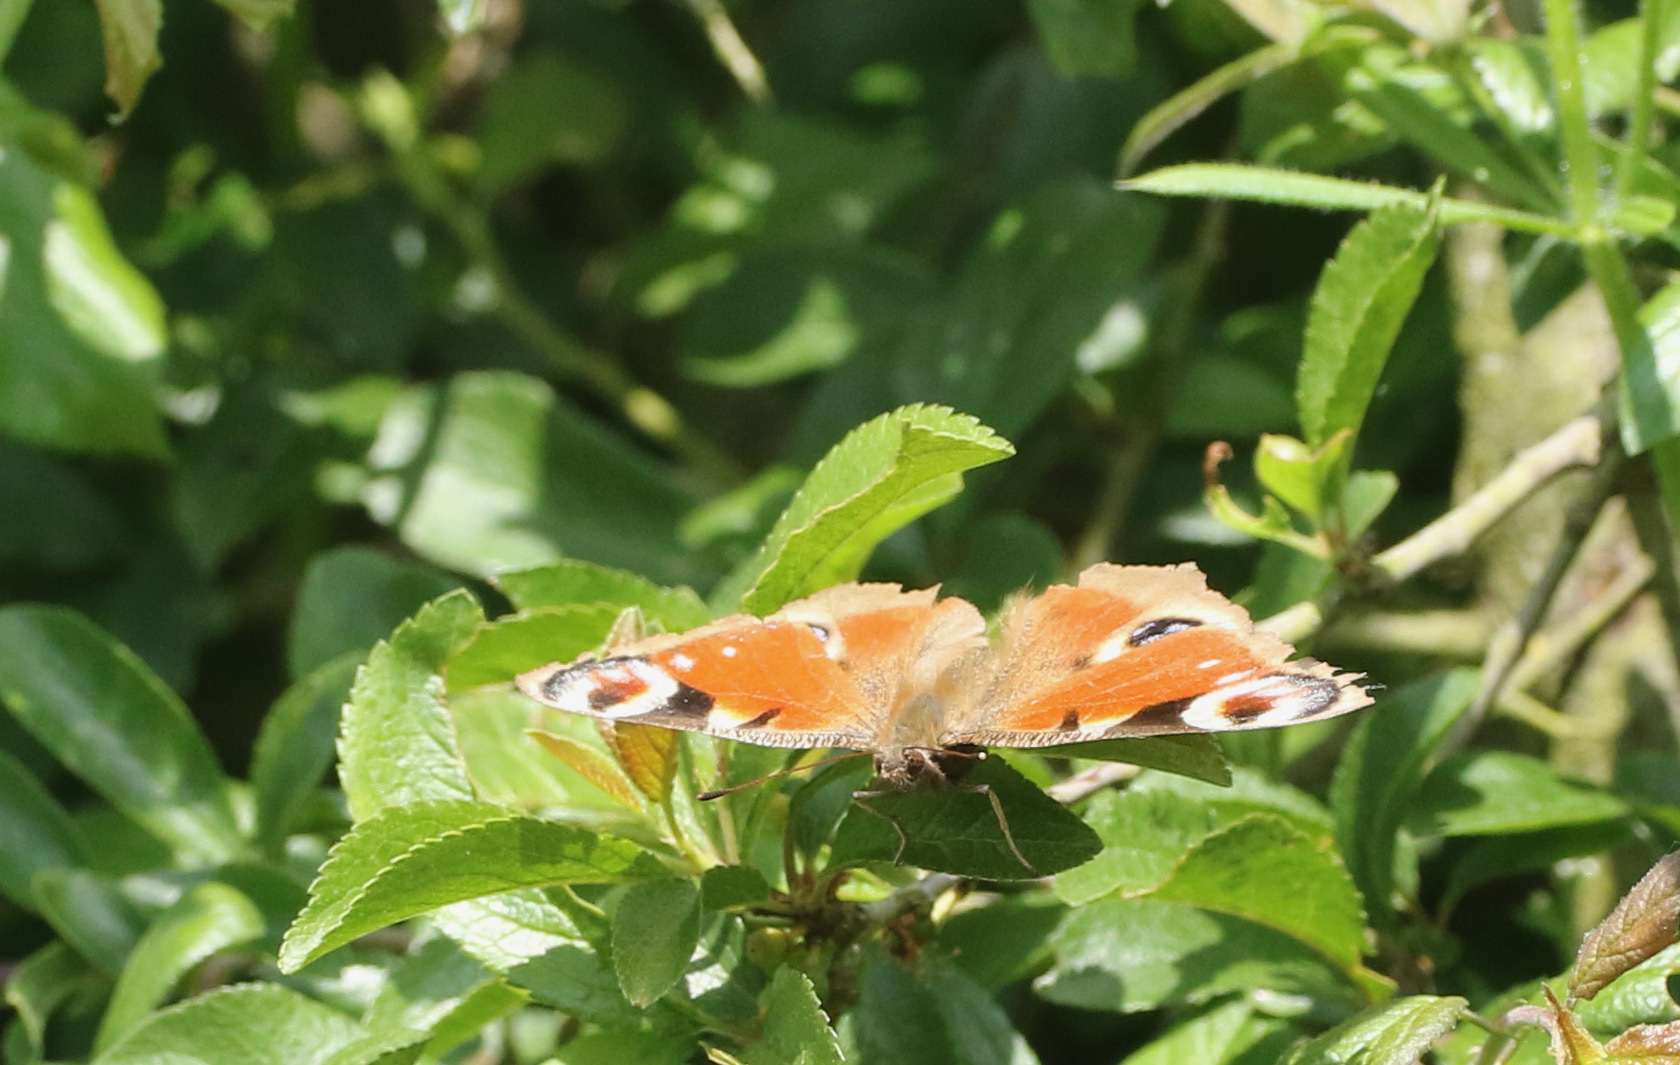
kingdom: Animalia
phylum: Arthropoda
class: Insecta
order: Lepidoptera
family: Nymphalidae
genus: Aglais
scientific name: Aglais io
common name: Peacock
